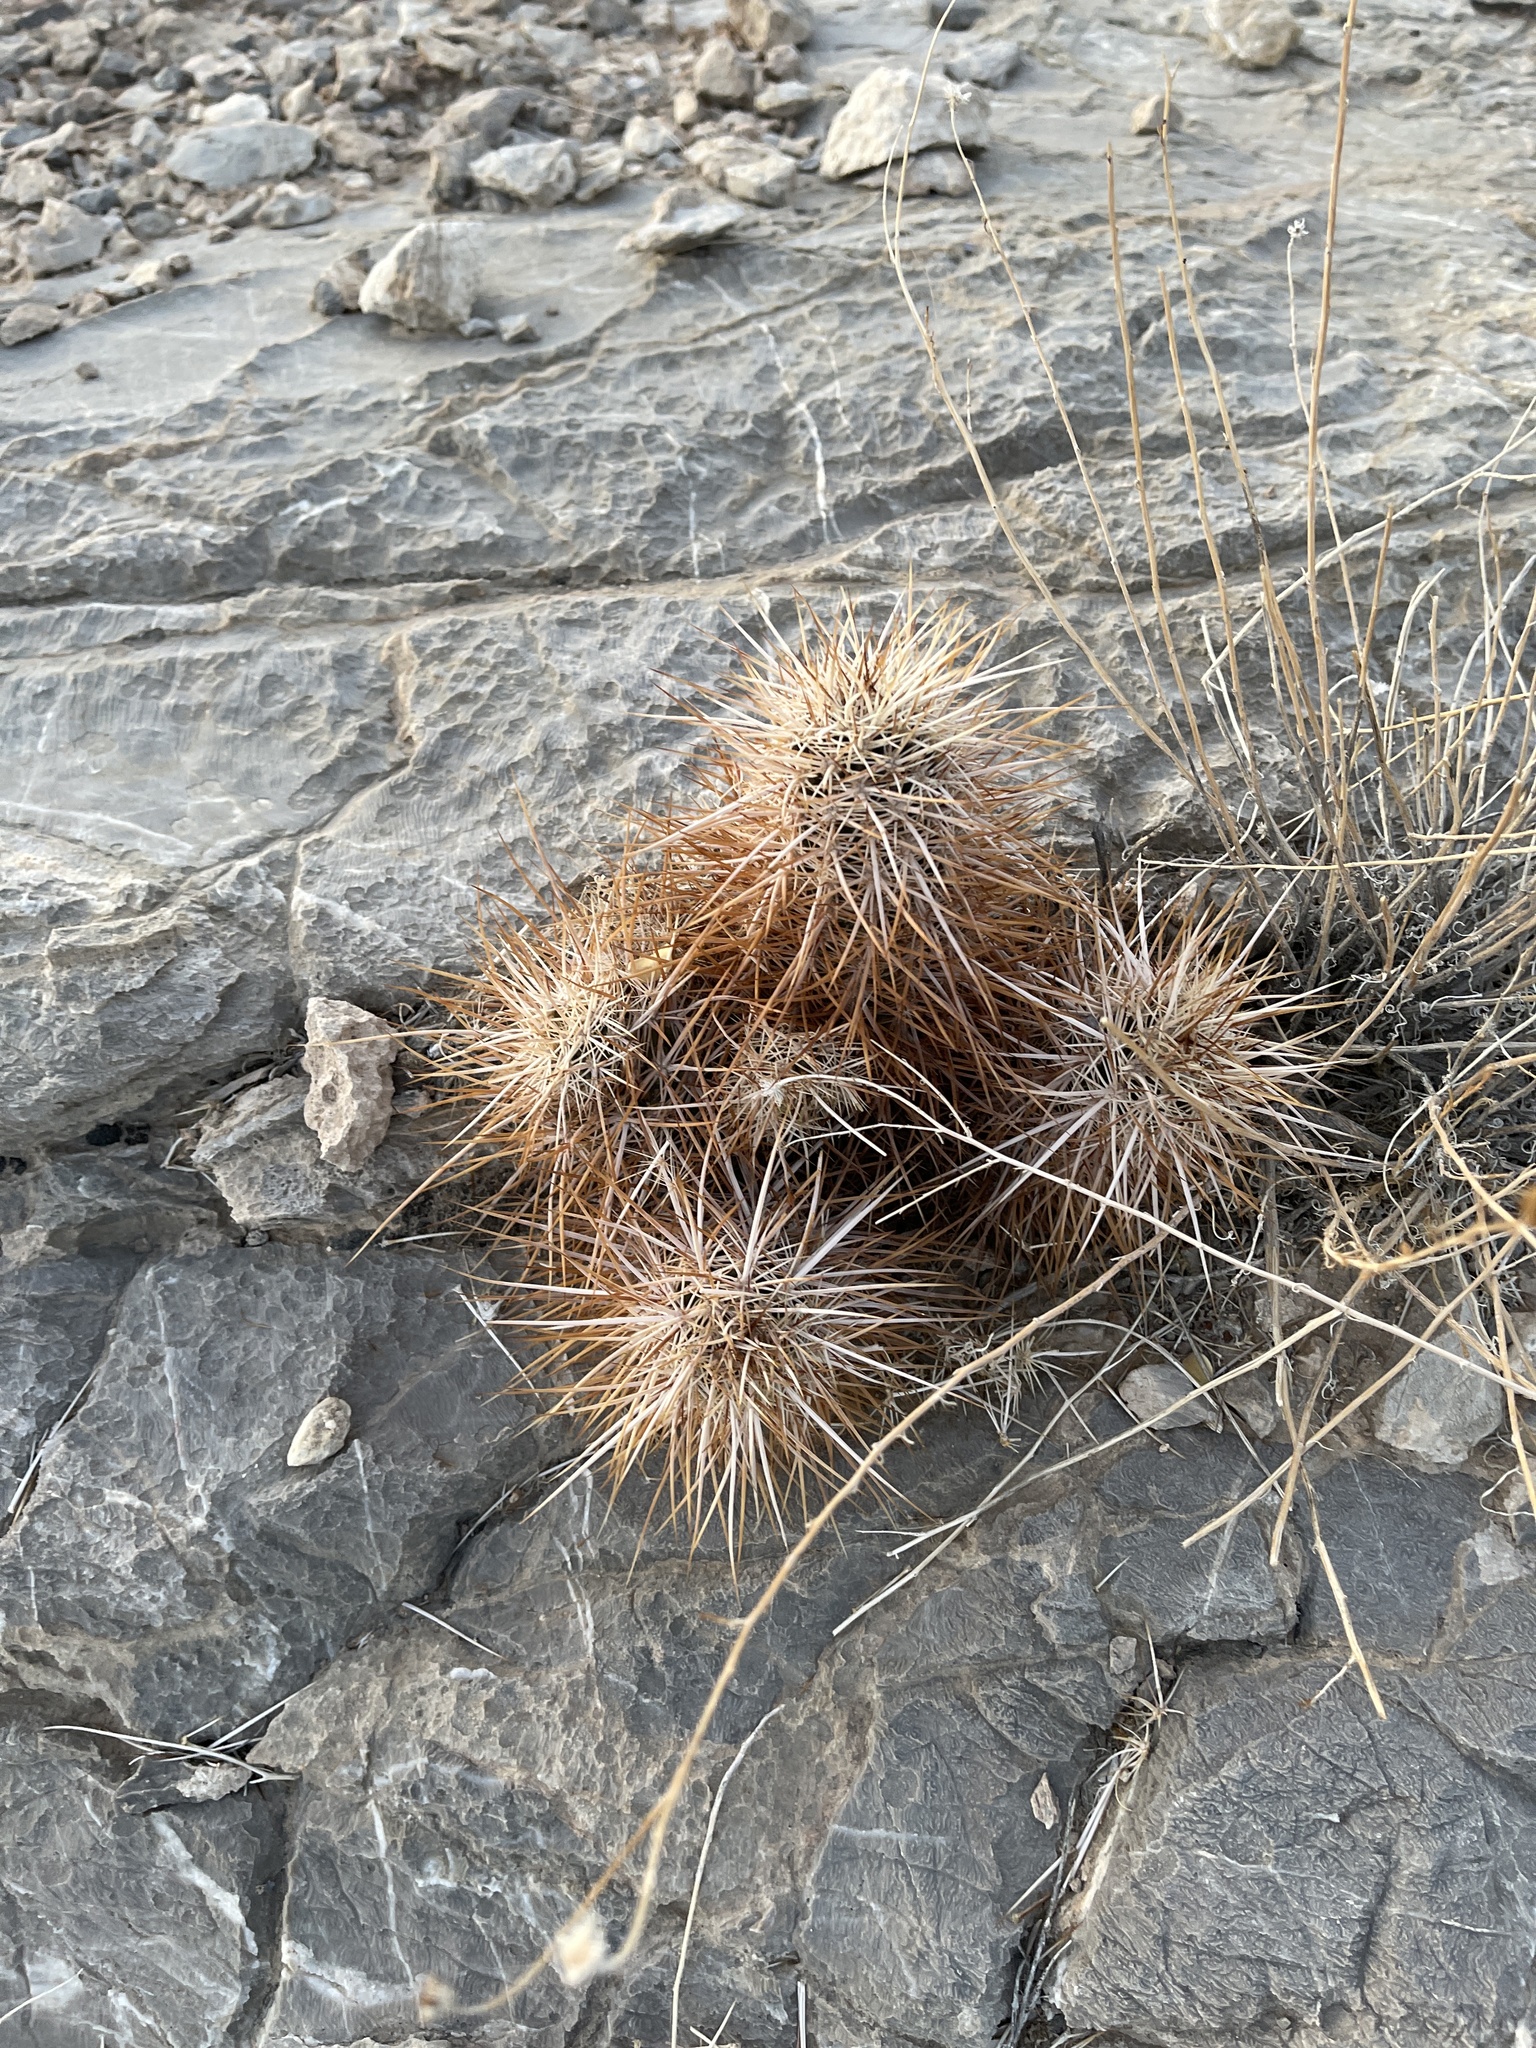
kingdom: Plantae
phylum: Tracheophyta
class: Magnoliopsida
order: Caryophyllales
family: Cactaceae
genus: Echinocereus
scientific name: Echinocereus engelmannii
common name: Engelmann's hedgehog cactus
